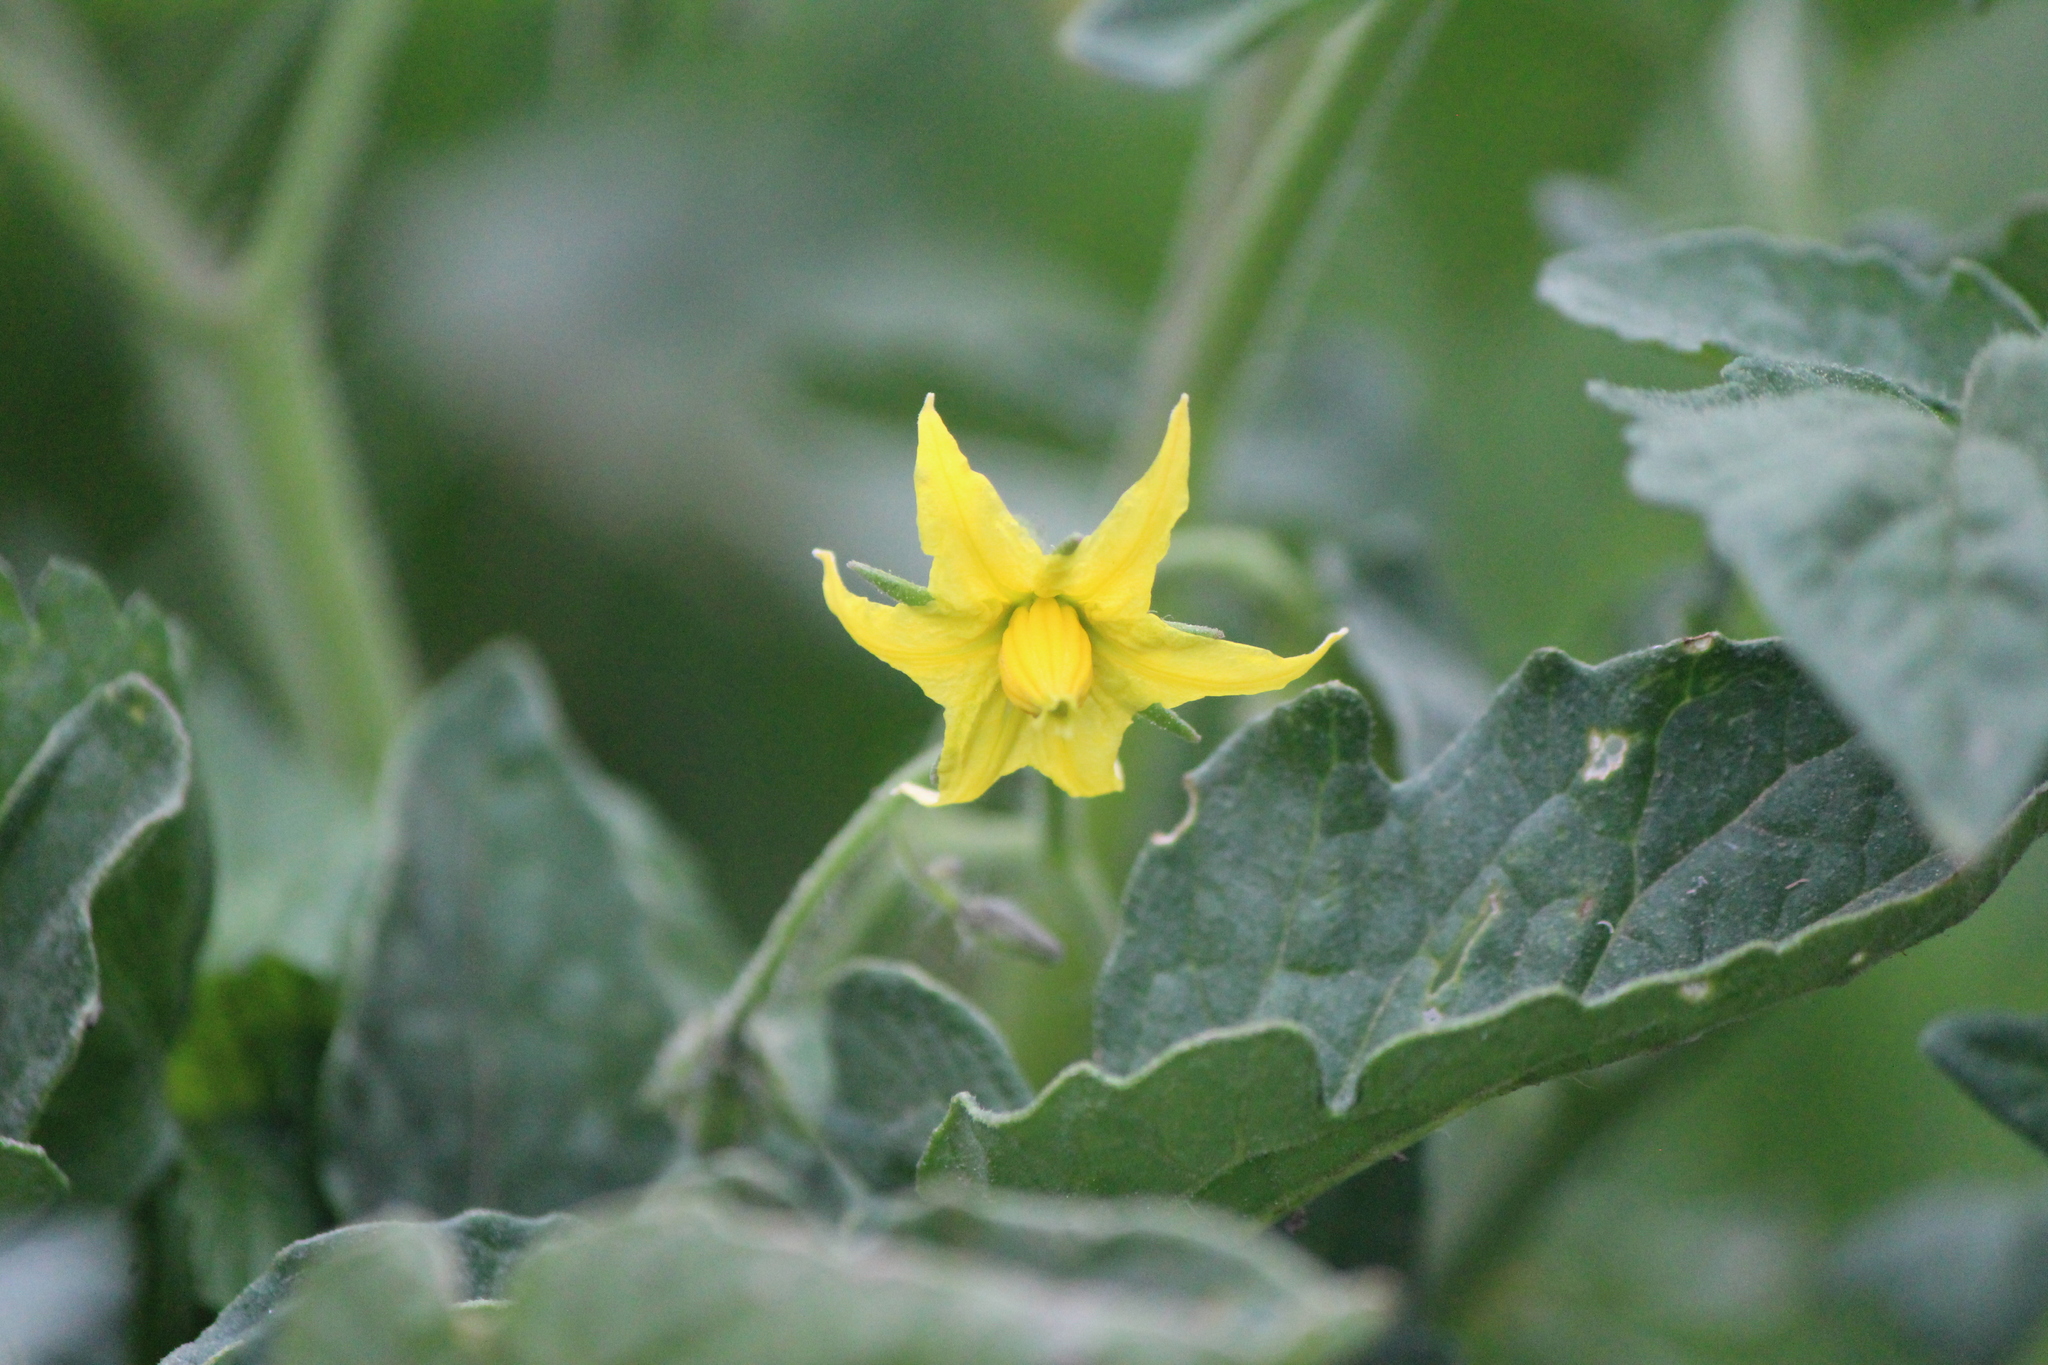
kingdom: Plantae
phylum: Tracheophyta
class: Magnoliopsida
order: Solanales
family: Solanaceae
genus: Solanum
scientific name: Solanum lycopersicum
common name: Garden tomato
